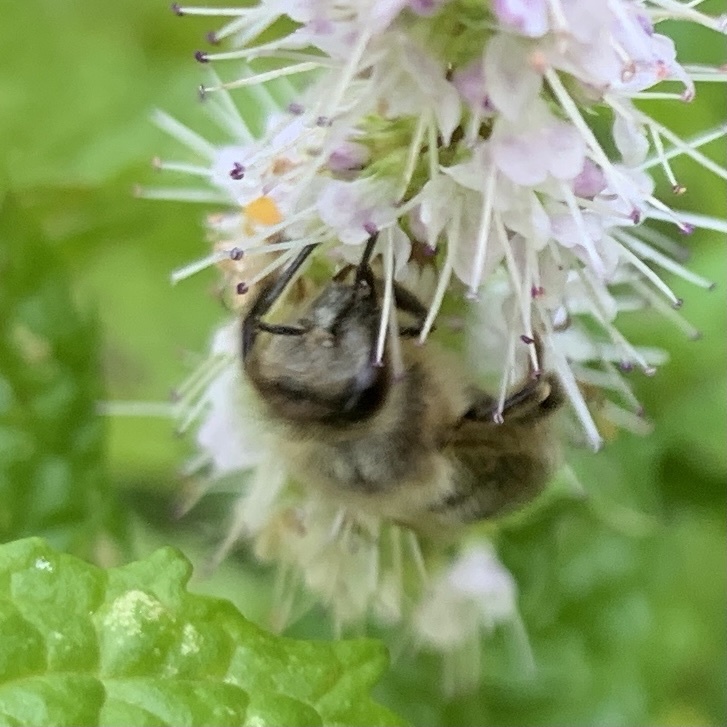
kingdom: Animalia
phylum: Arthropoda
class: Insecta
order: Hymenoptera
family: Apidae
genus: Apis
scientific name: Apis mellifera
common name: Honey bee
